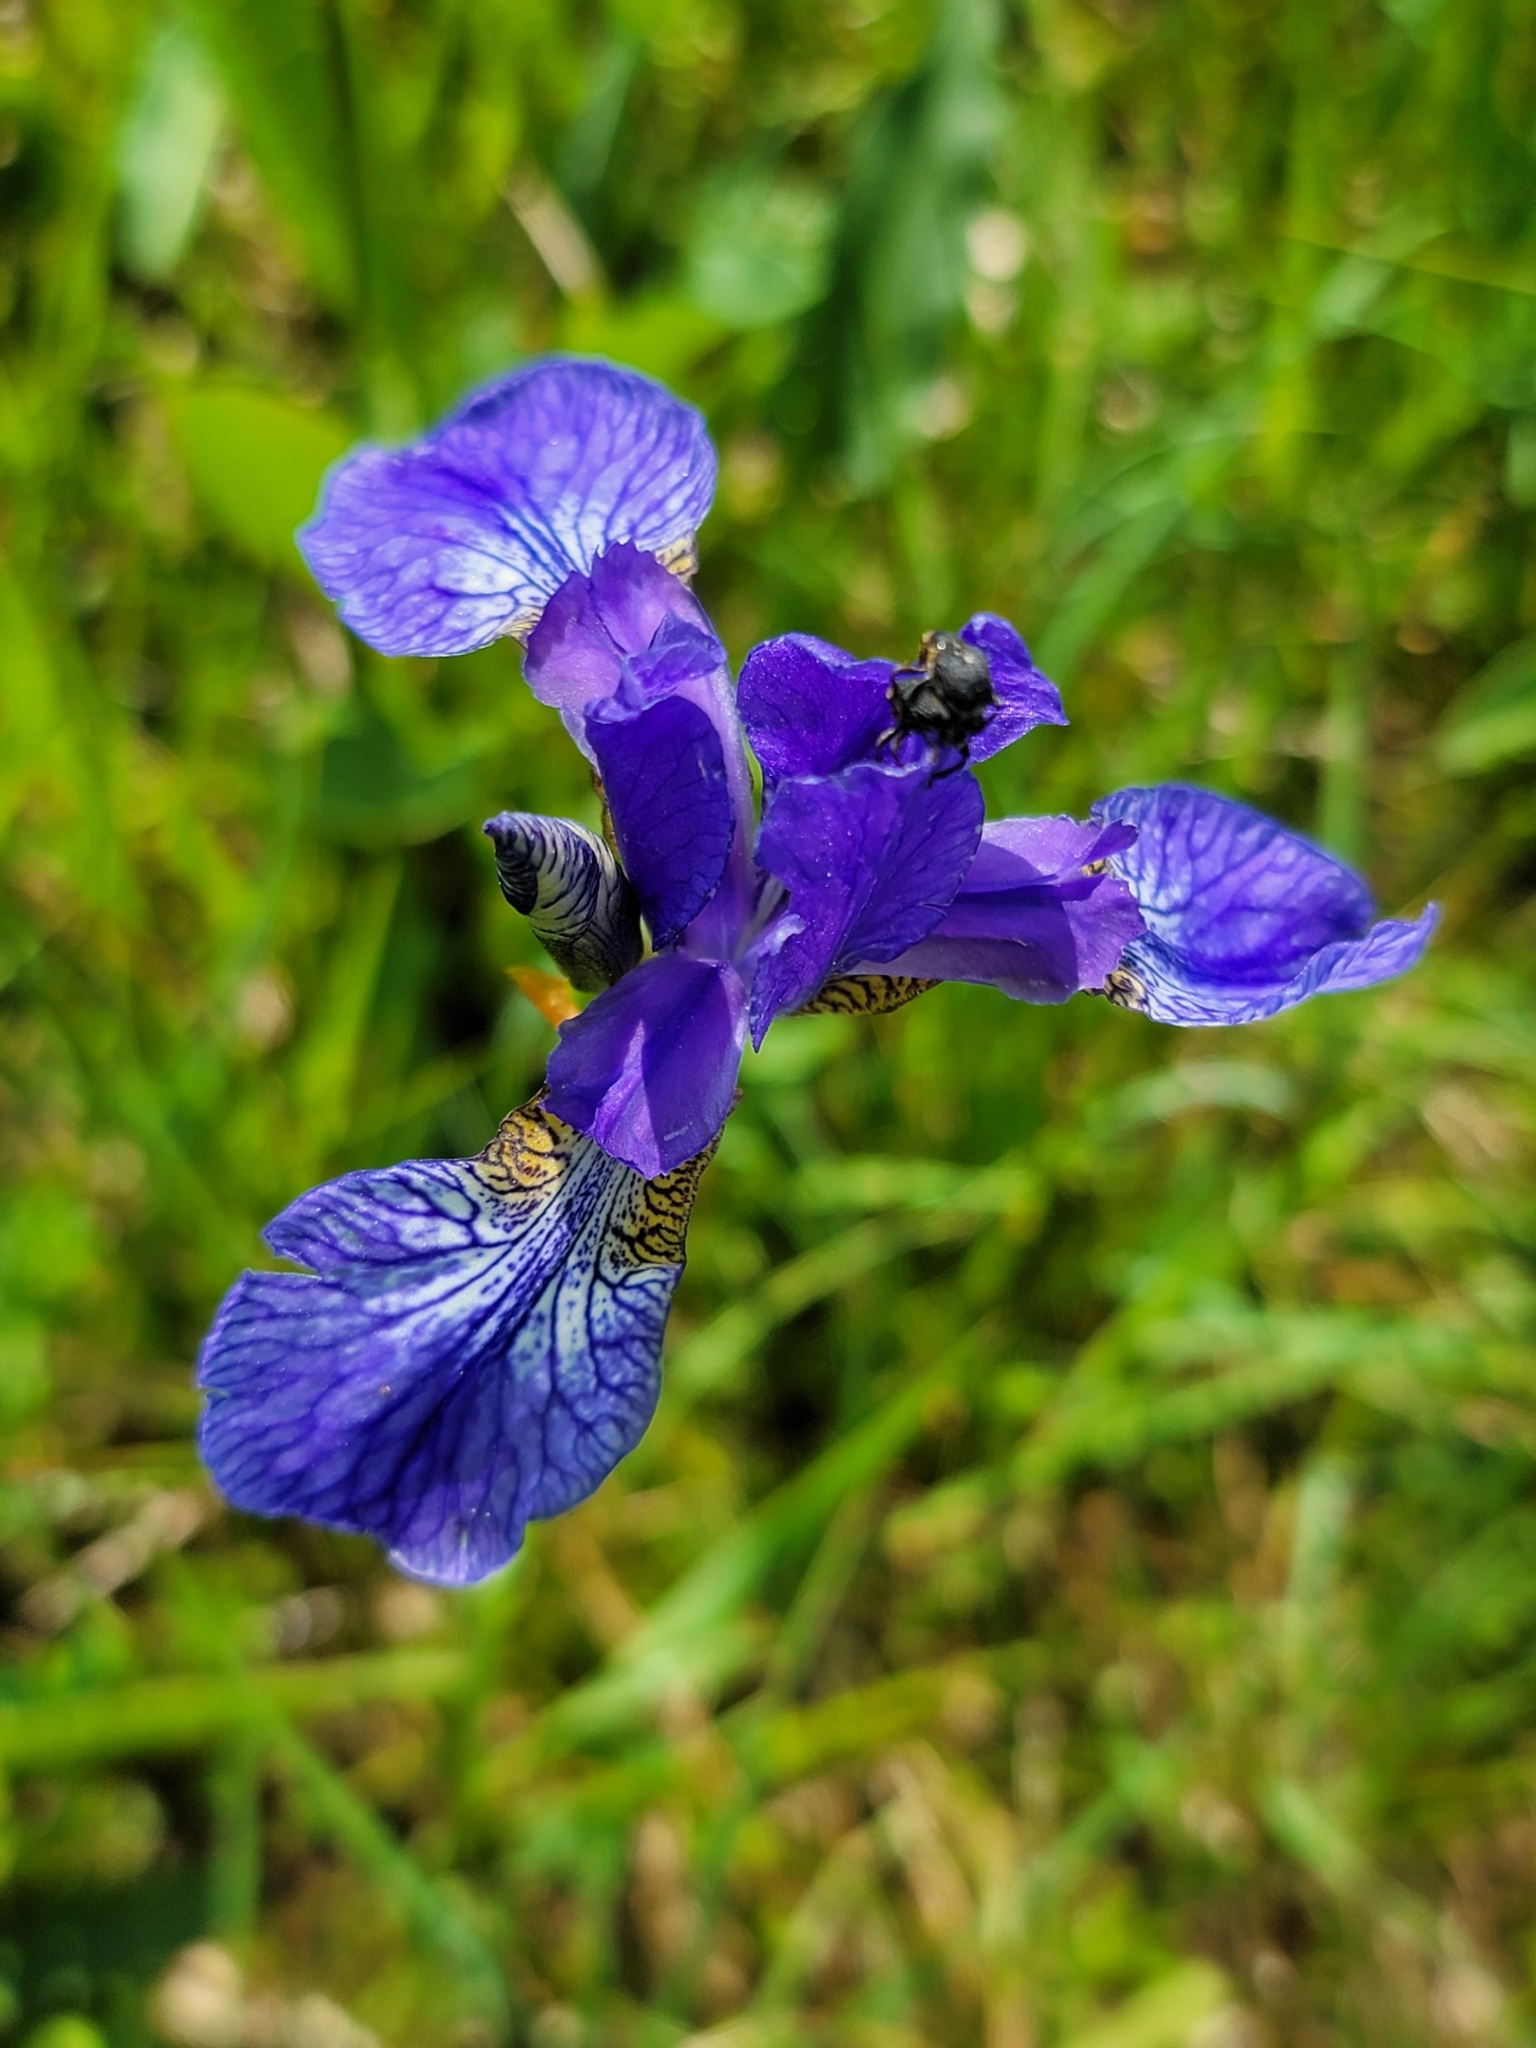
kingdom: Plantae
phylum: Tracheophyta
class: Liliopsida
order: Asparagales
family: Iridaceae
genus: Iris
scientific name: Iris sibirica
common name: Siberian iris
